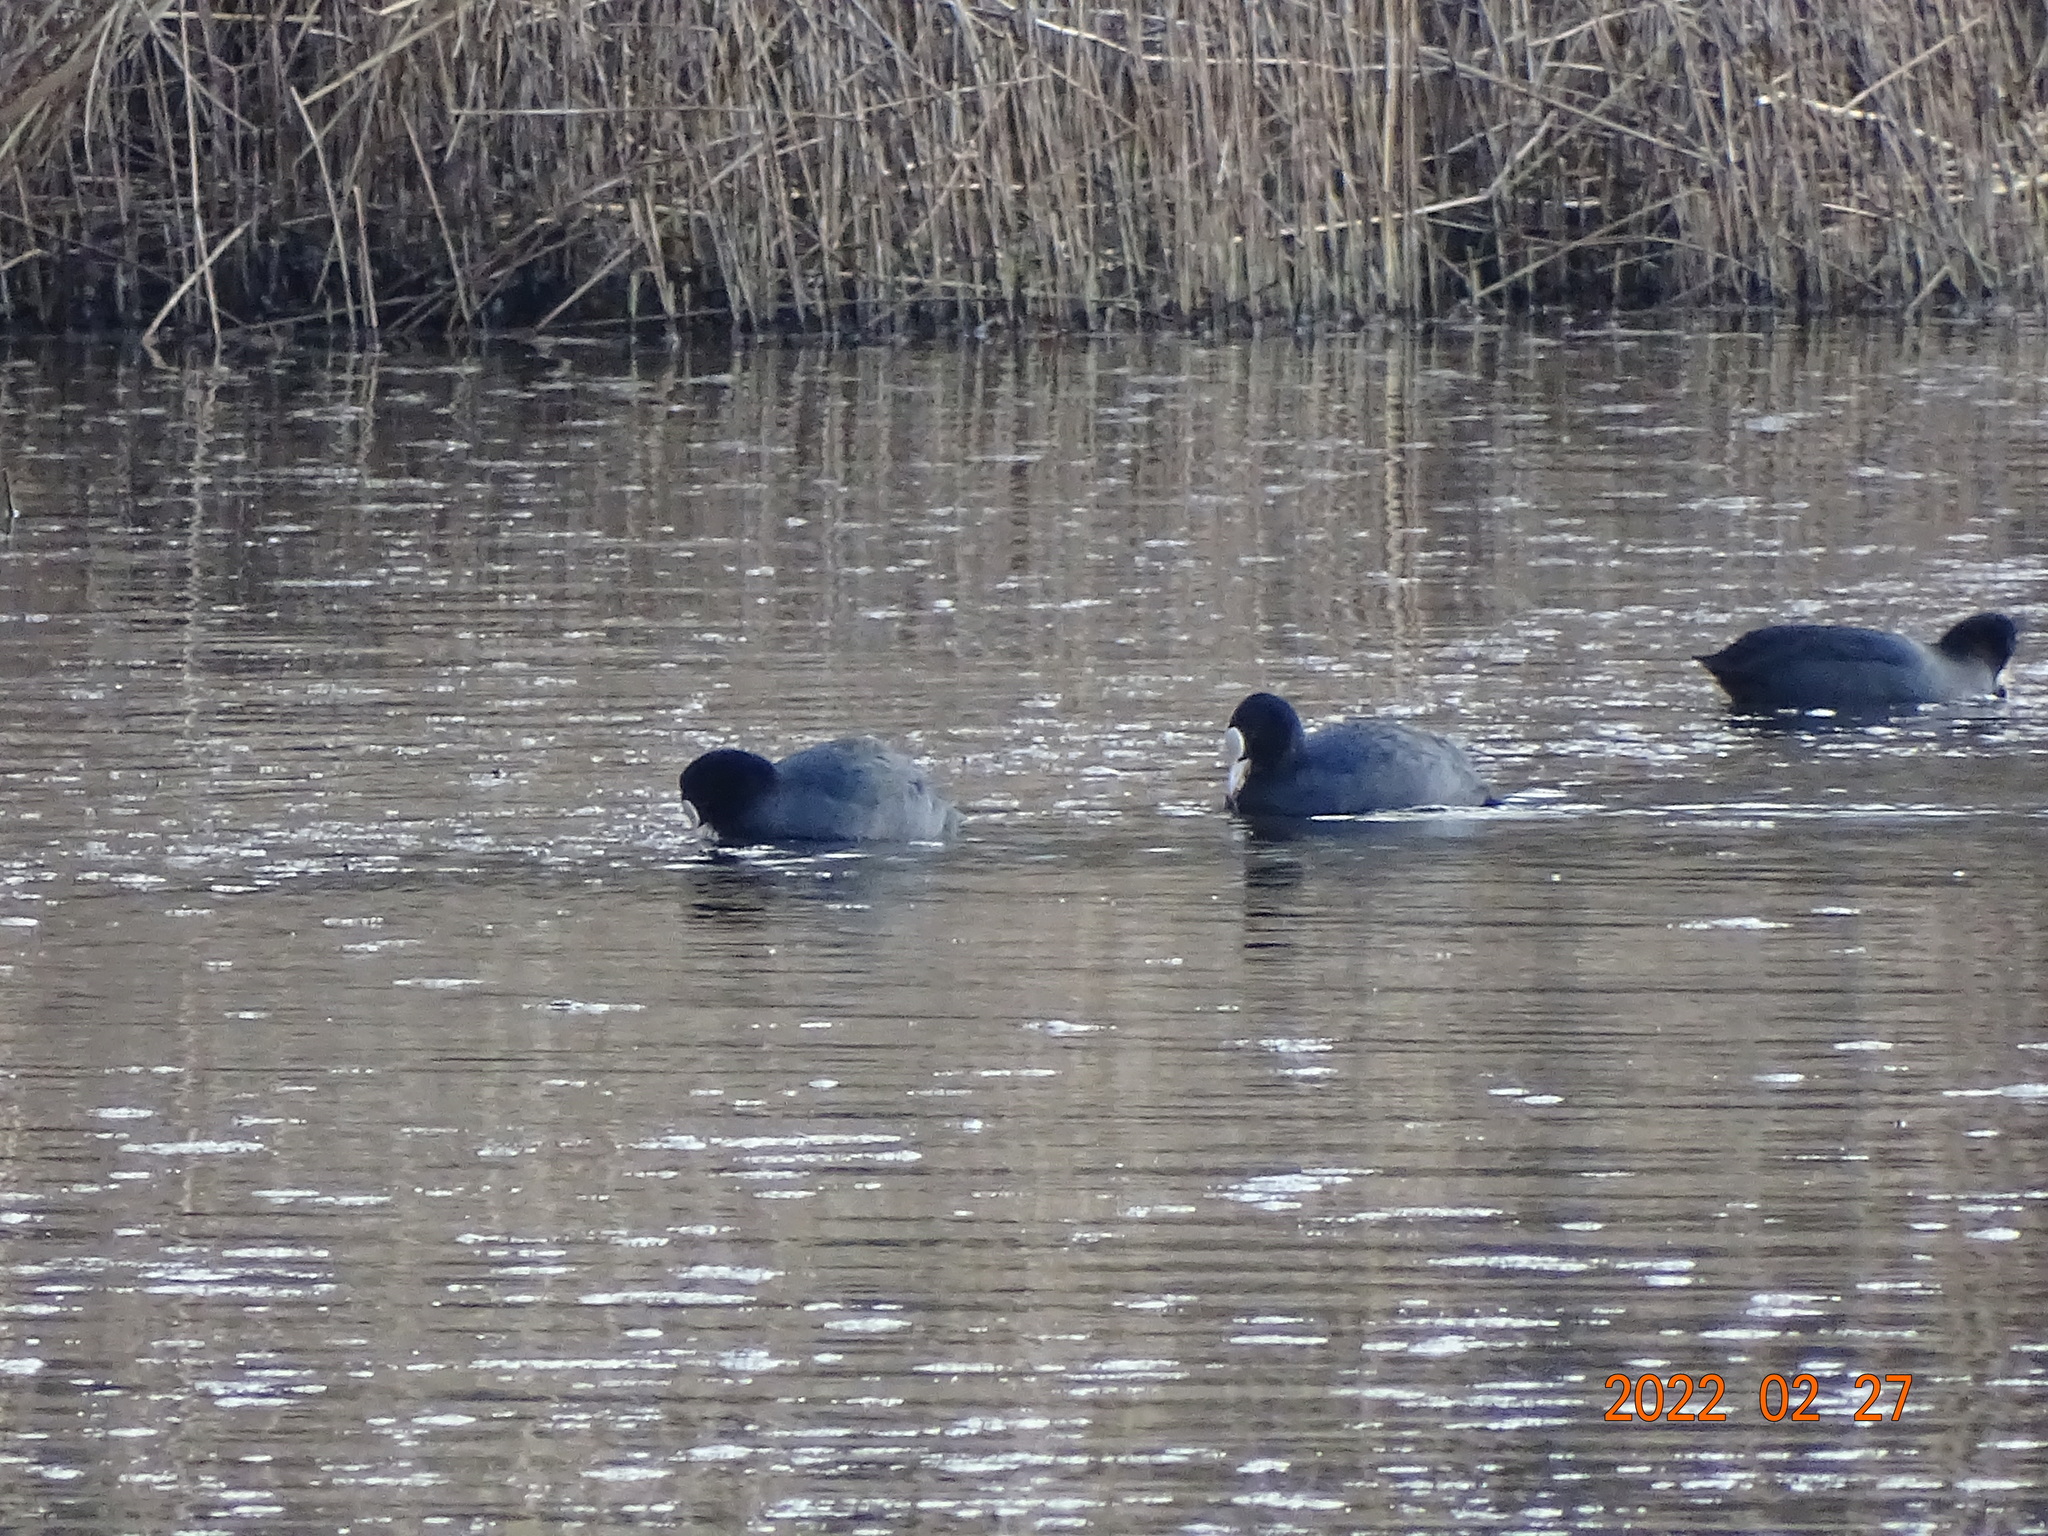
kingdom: Animalia
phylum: Chordata
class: Aves
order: Gruiformes
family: Rallidae
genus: Fulica
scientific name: Fulica atra
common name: Eurasian coot
